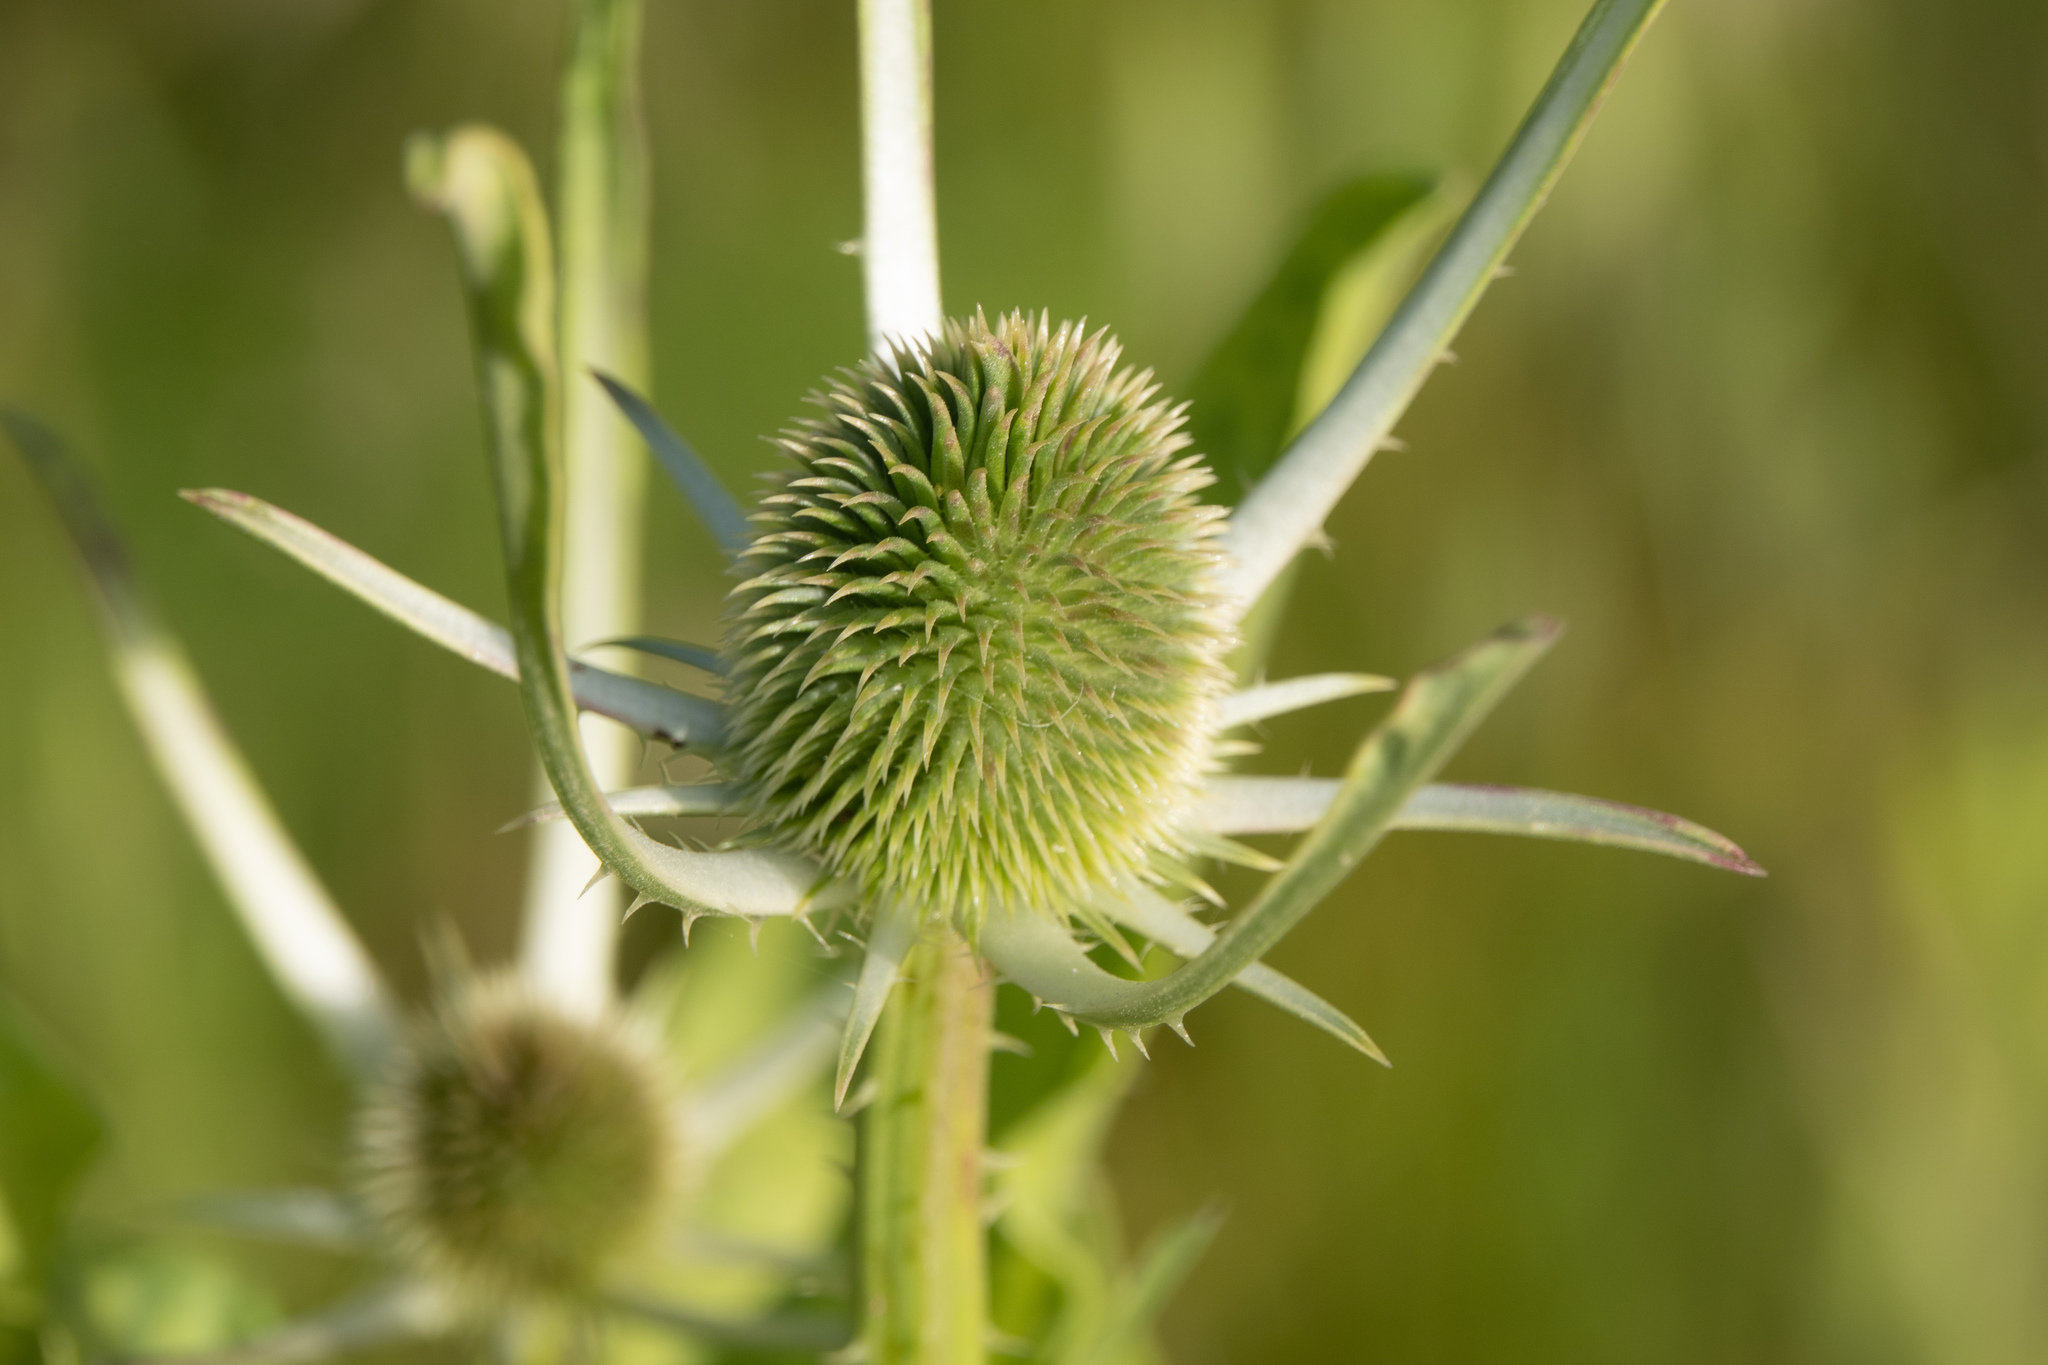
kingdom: Plantae
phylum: Tracheophyta
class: Magnoliopsida
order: Dipsacales
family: Caprifoliaceae
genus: Dipsacus
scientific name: Dipsacus sativus
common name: Fuller's teasel
